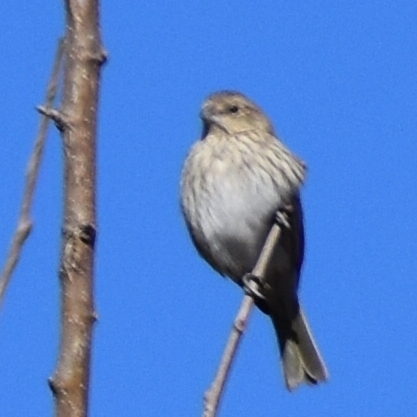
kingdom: Animalia
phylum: Chordata
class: Aves
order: Passeriformes
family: Thraupidae
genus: Sicalis
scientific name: Sicalis flaveola
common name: Saffron finch
